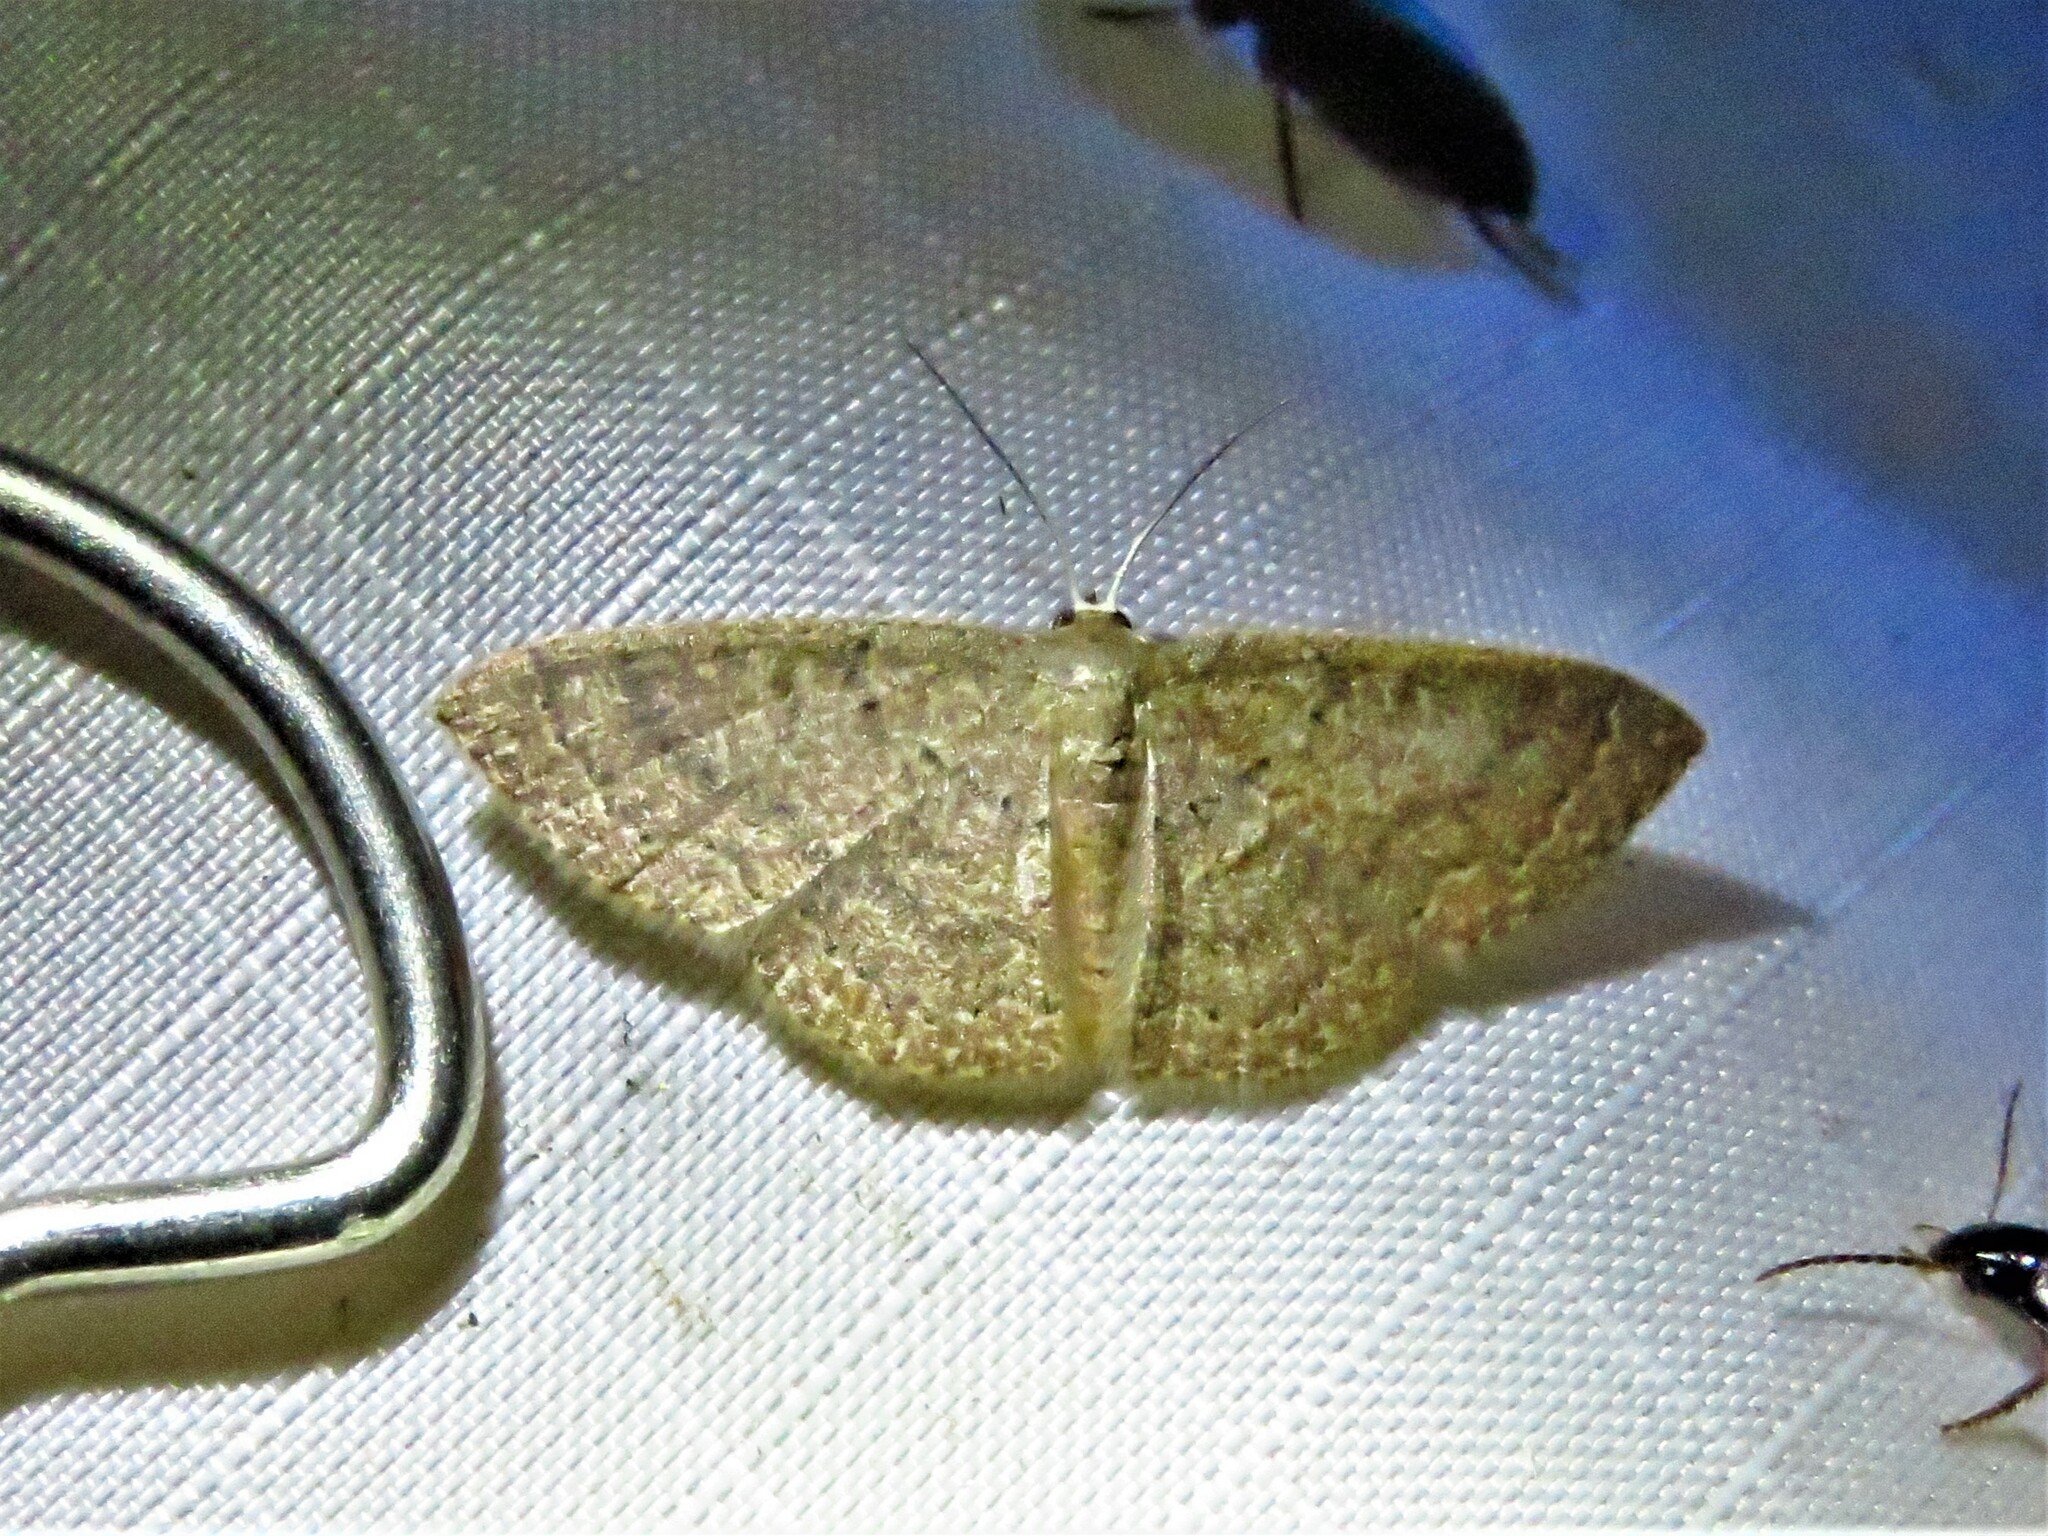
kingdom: Animalia
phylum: Arthropoda
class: Insecta
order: Lepidoptera
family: Geometridae
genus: Pleuroprucha
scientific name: Pleuroprucha insulsaria
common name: Common tan wave
